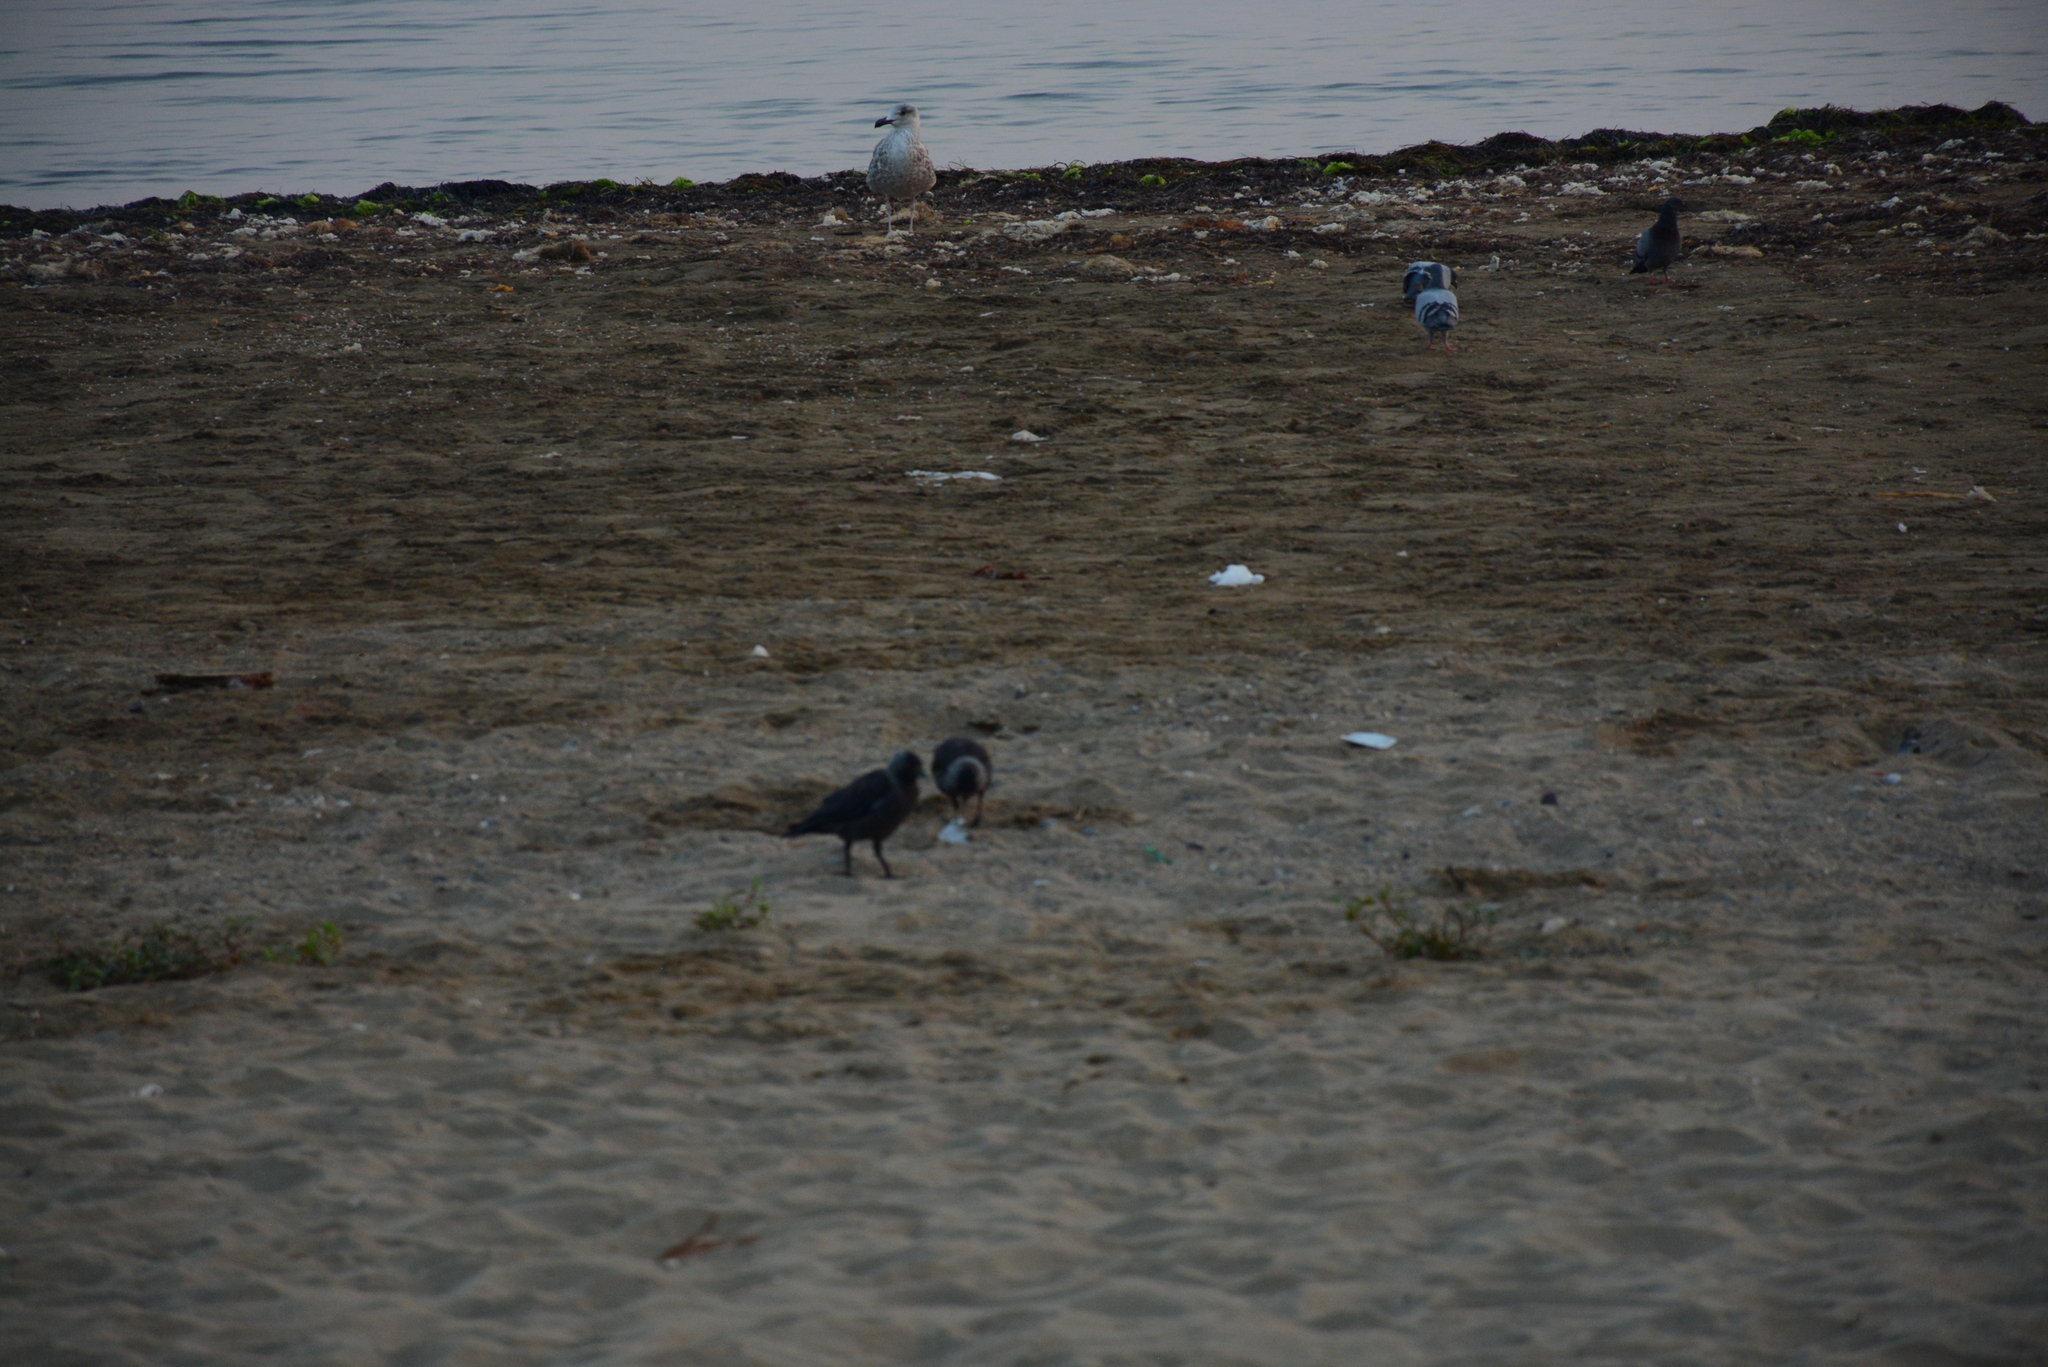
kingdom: Animalia
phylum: Chordata
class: Aves
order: Columbiformes
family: Columbidae
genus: Columba
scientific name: Columba livia
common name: Rock pigeon
